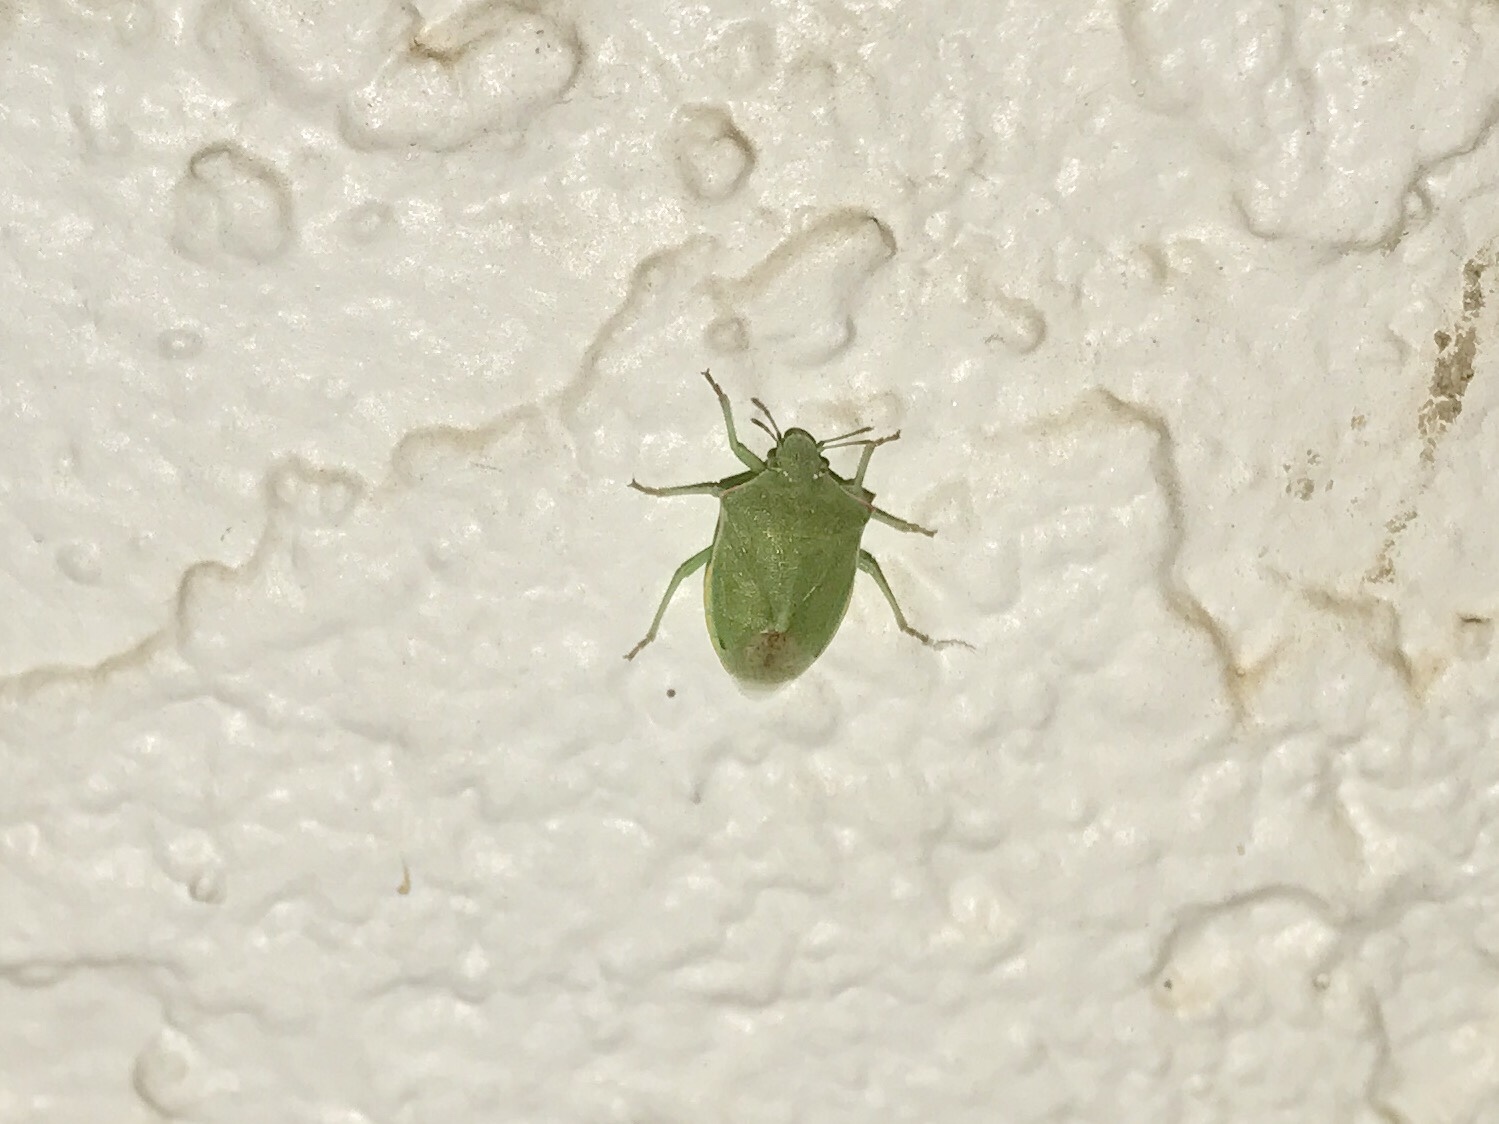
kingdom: Animalia
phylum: Arthropoda
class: Insecta
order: Hemiptera
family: Pentatomidae
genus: Thyanta
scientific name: Thyanta custator
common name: Stink bug
